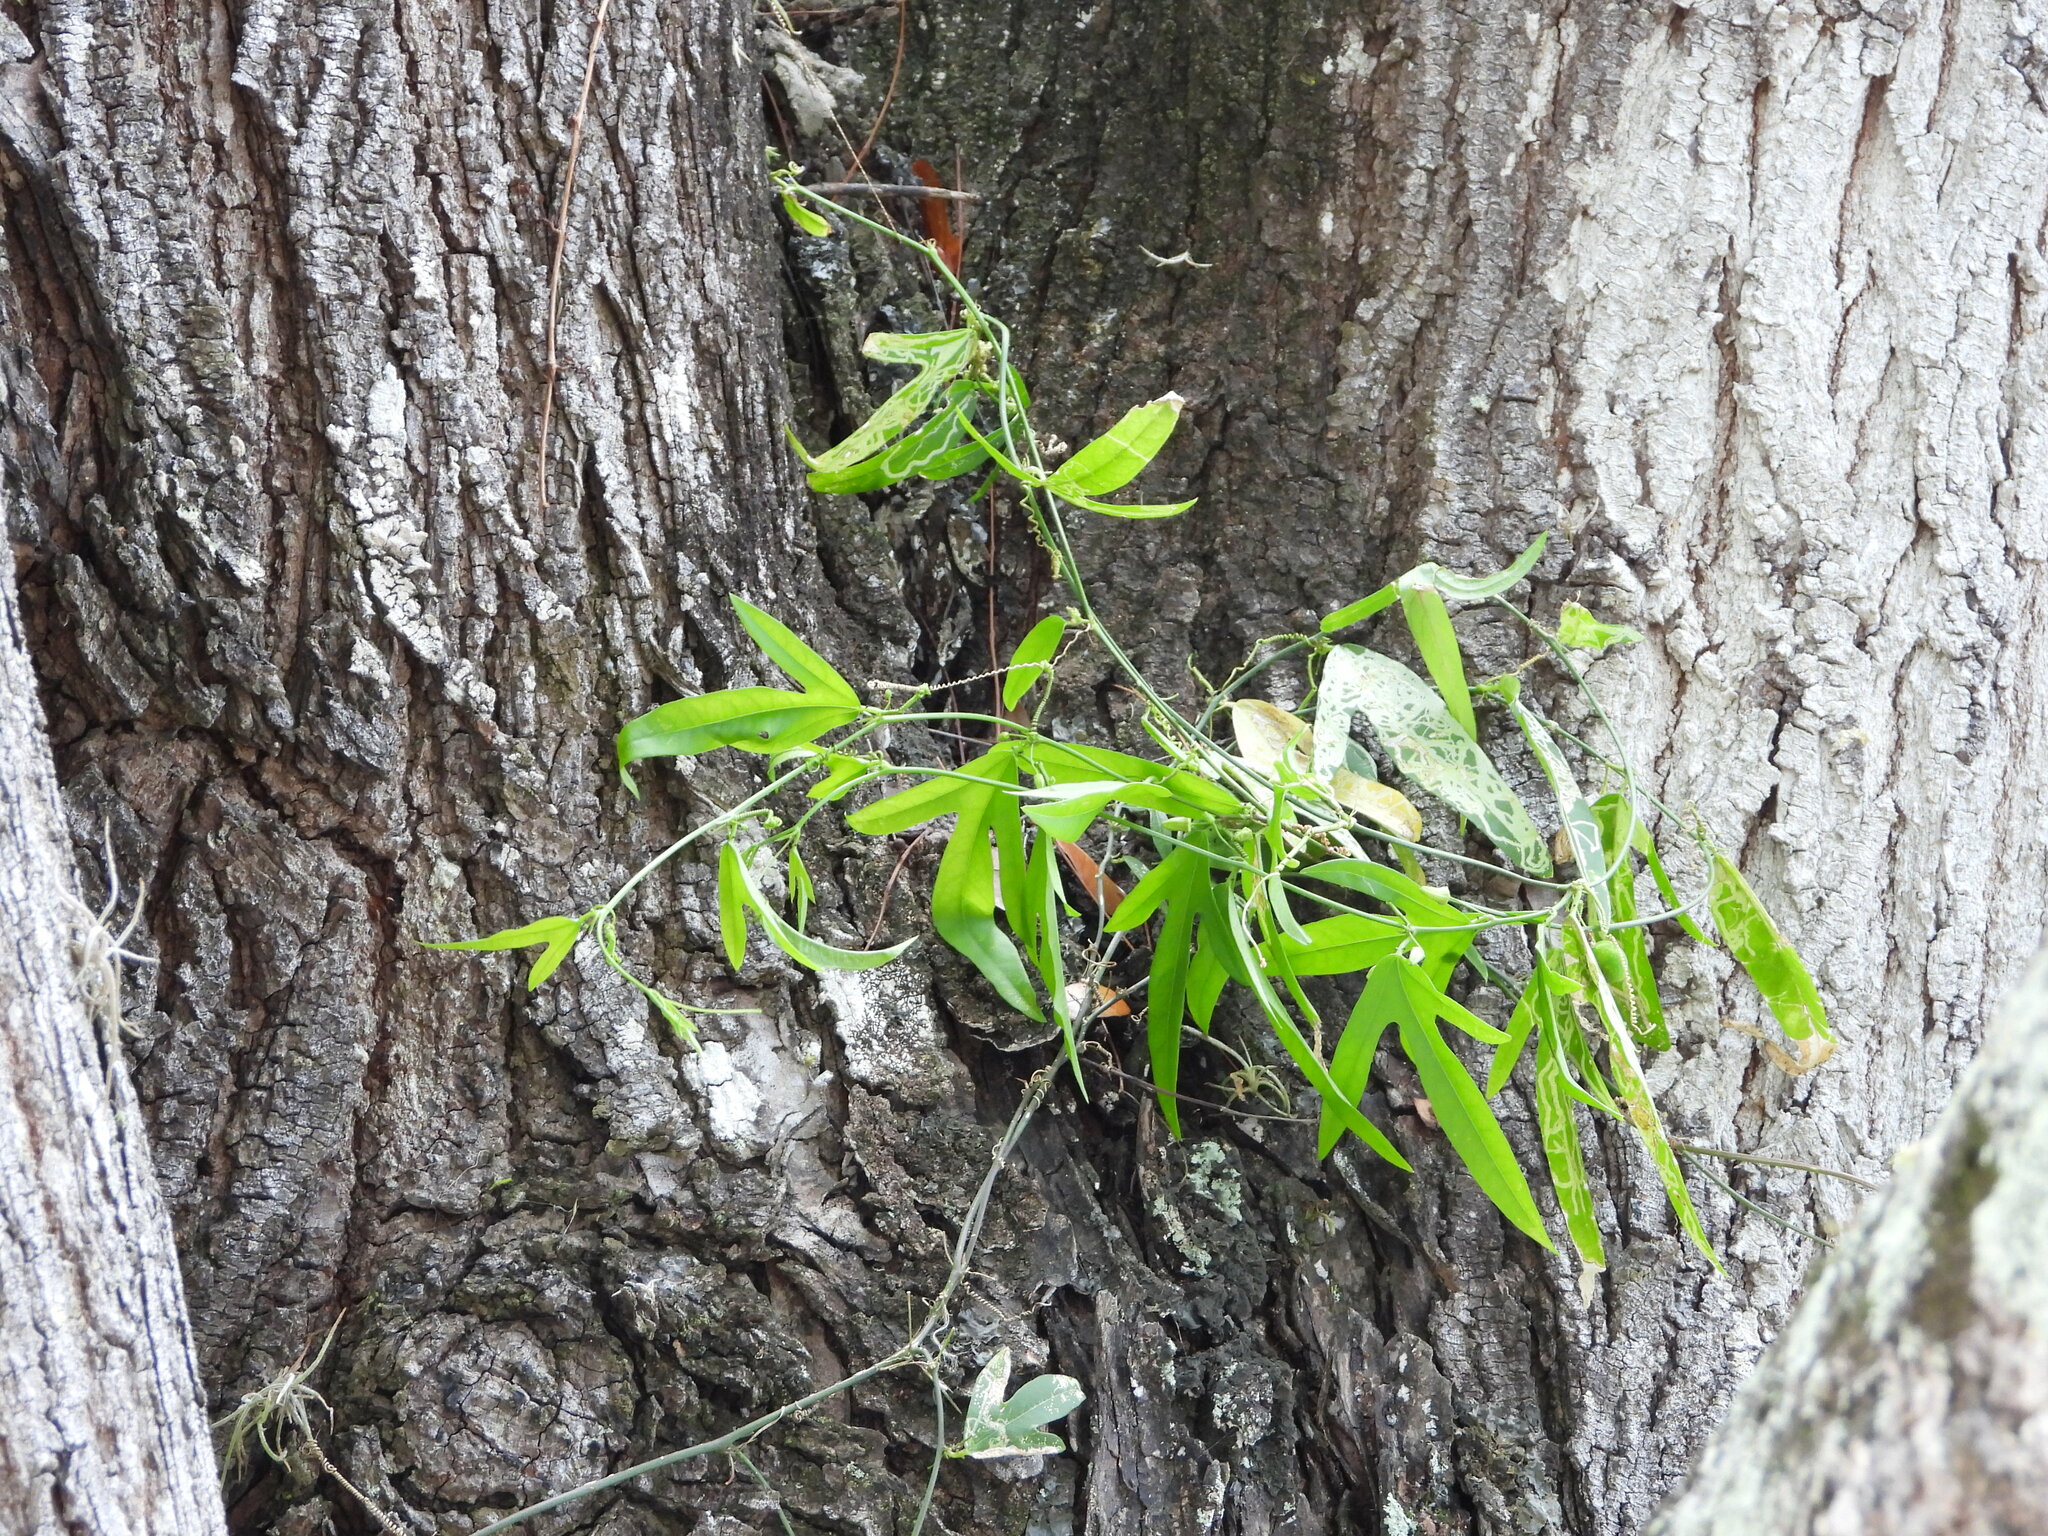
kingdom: Plantae
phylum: Tracheophyta
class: Magnoliopsida
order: Malpighiales
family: Passifloraceae
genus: Passiflora
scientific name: Passiflora pallida
